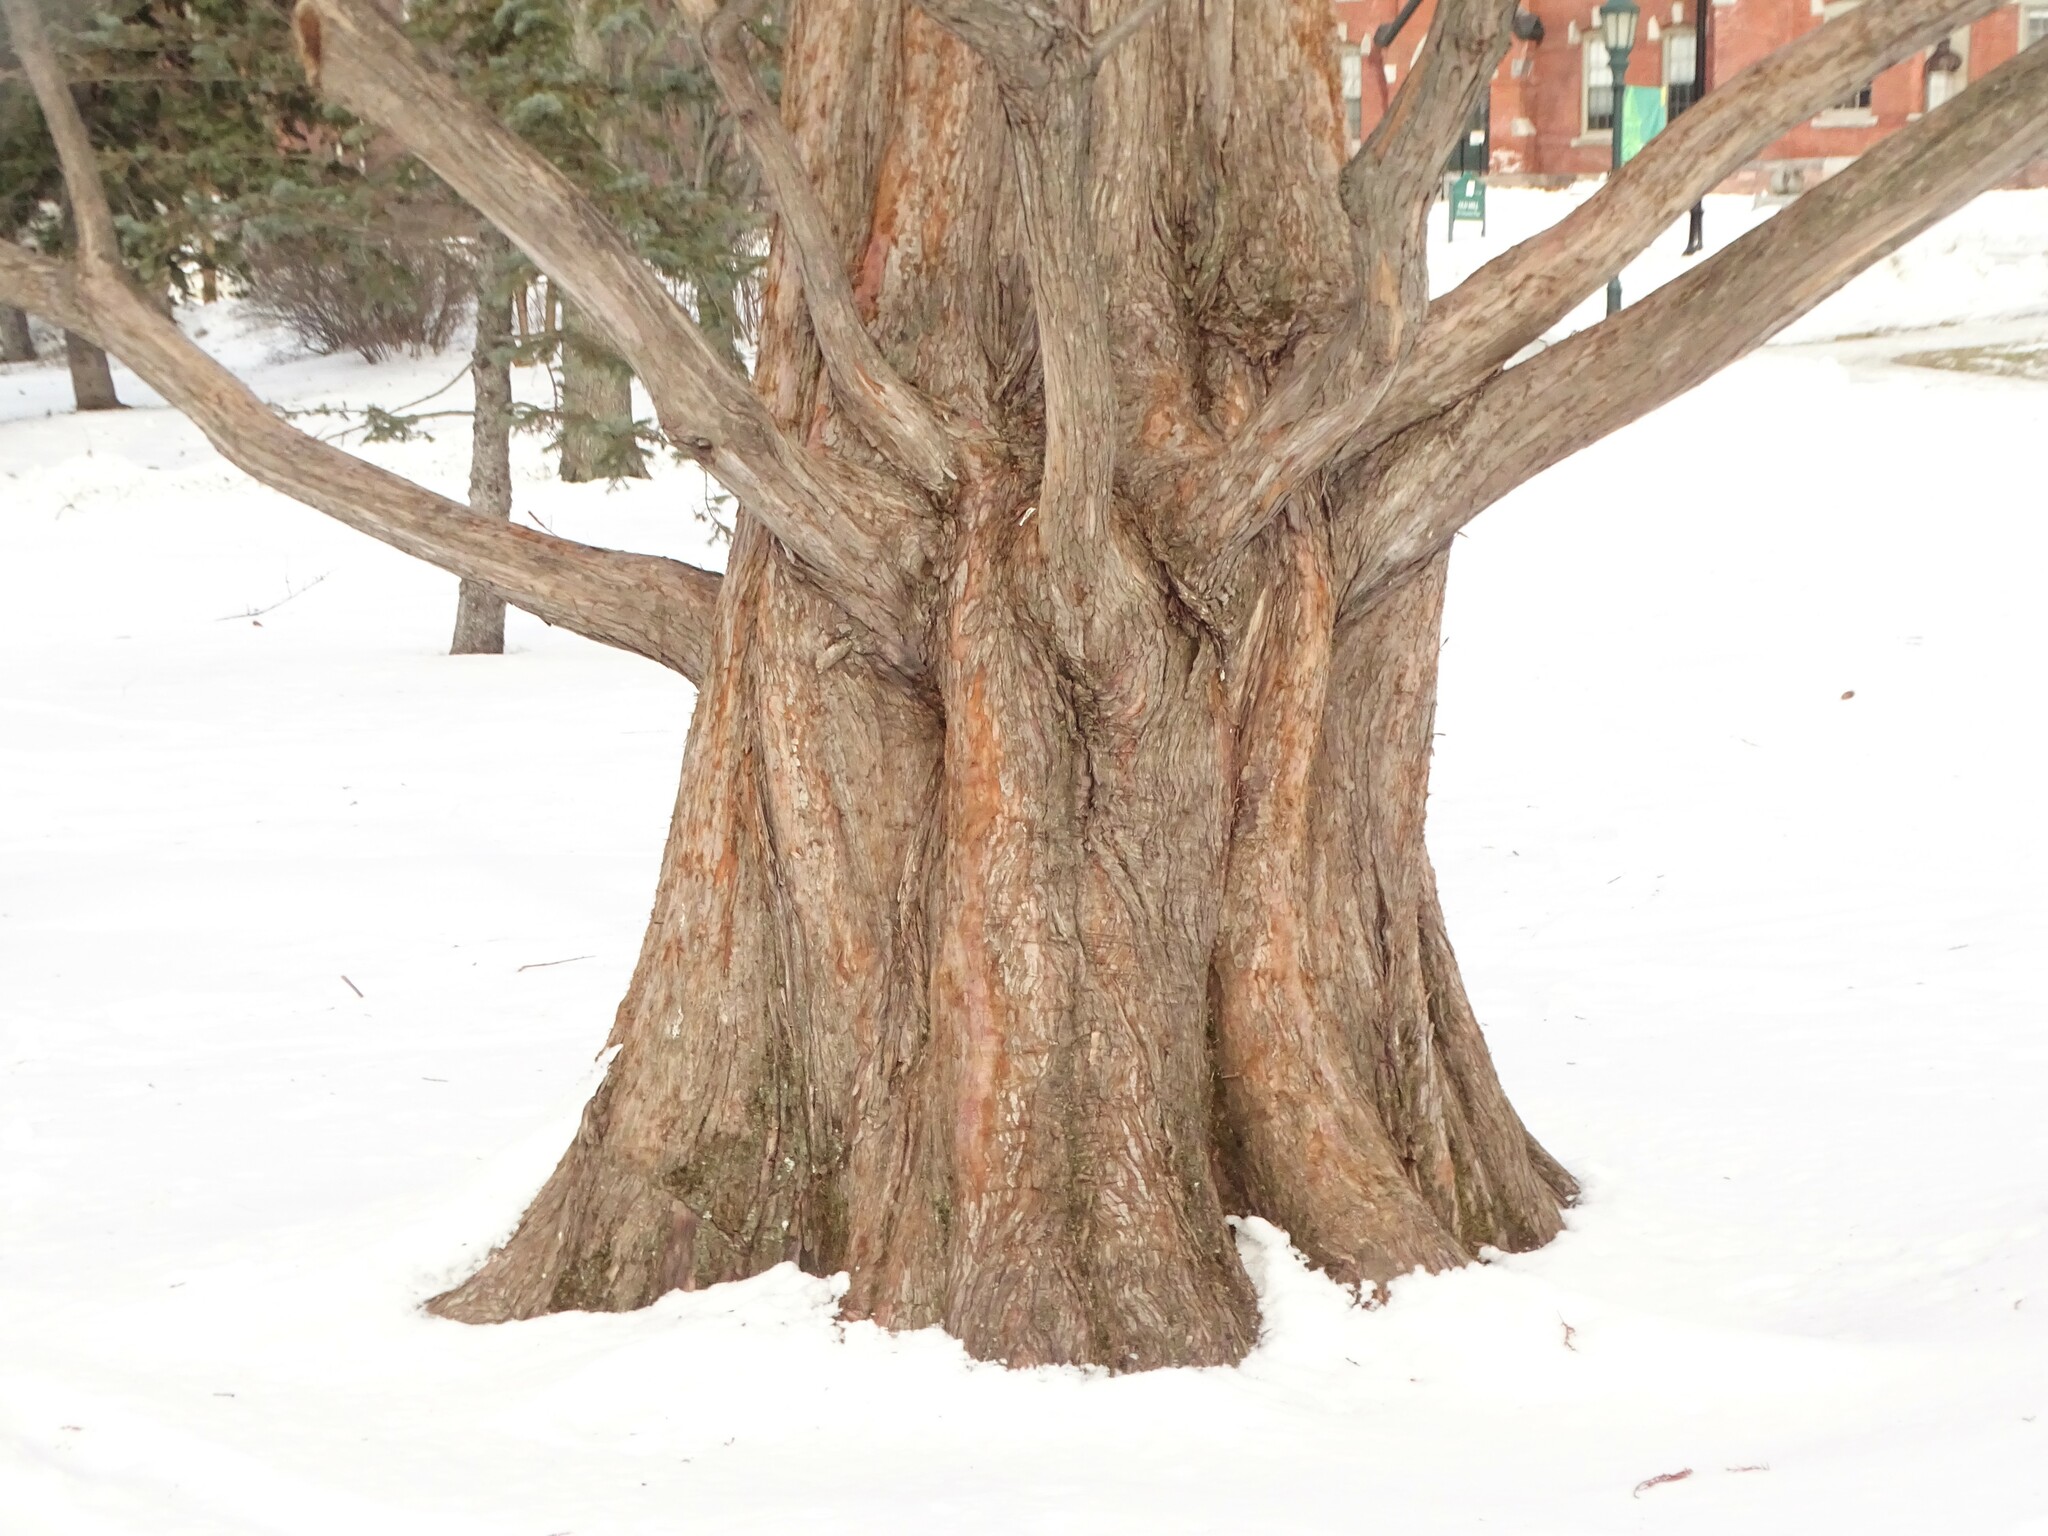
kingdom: Plantae
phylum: Tracheophyta
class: Pinopsida
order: Pinales
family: Cupressaceae
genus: Metasequoia
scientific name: Metasequoia glyptostroboides
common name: Dawn redwood
